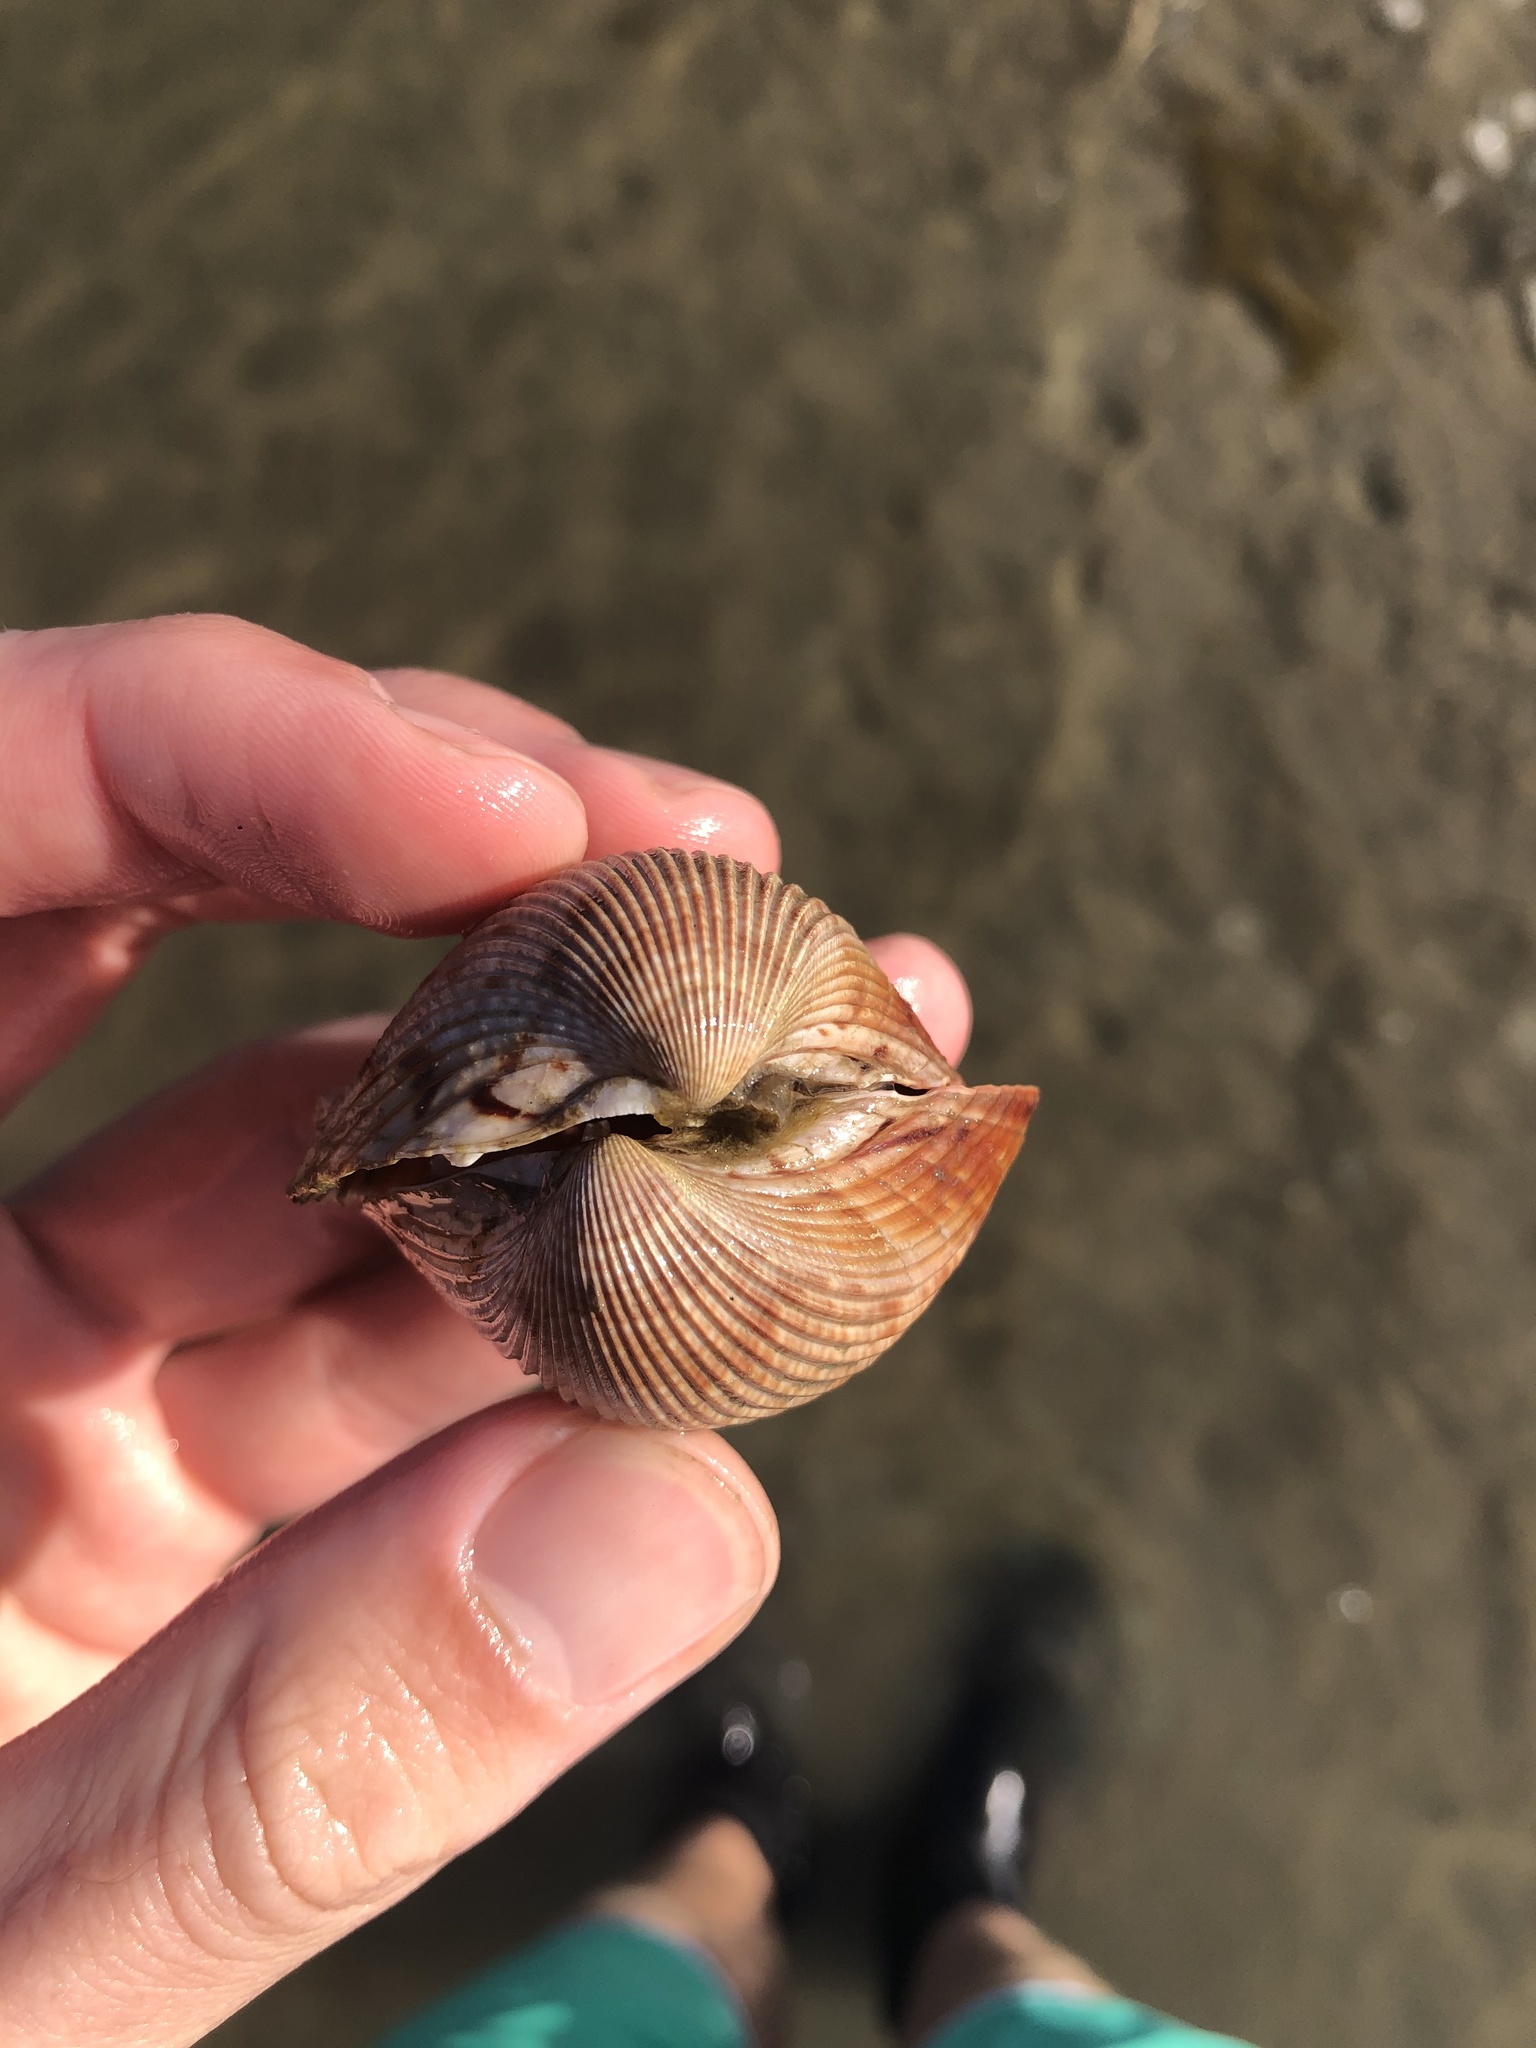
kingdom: Animalia
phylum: Mollusca
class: Bivalvia
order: Cardiida
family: Cardiidae
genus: Dinocardium
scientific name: Dinocardium robustum
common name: Atlantic giant cockle
